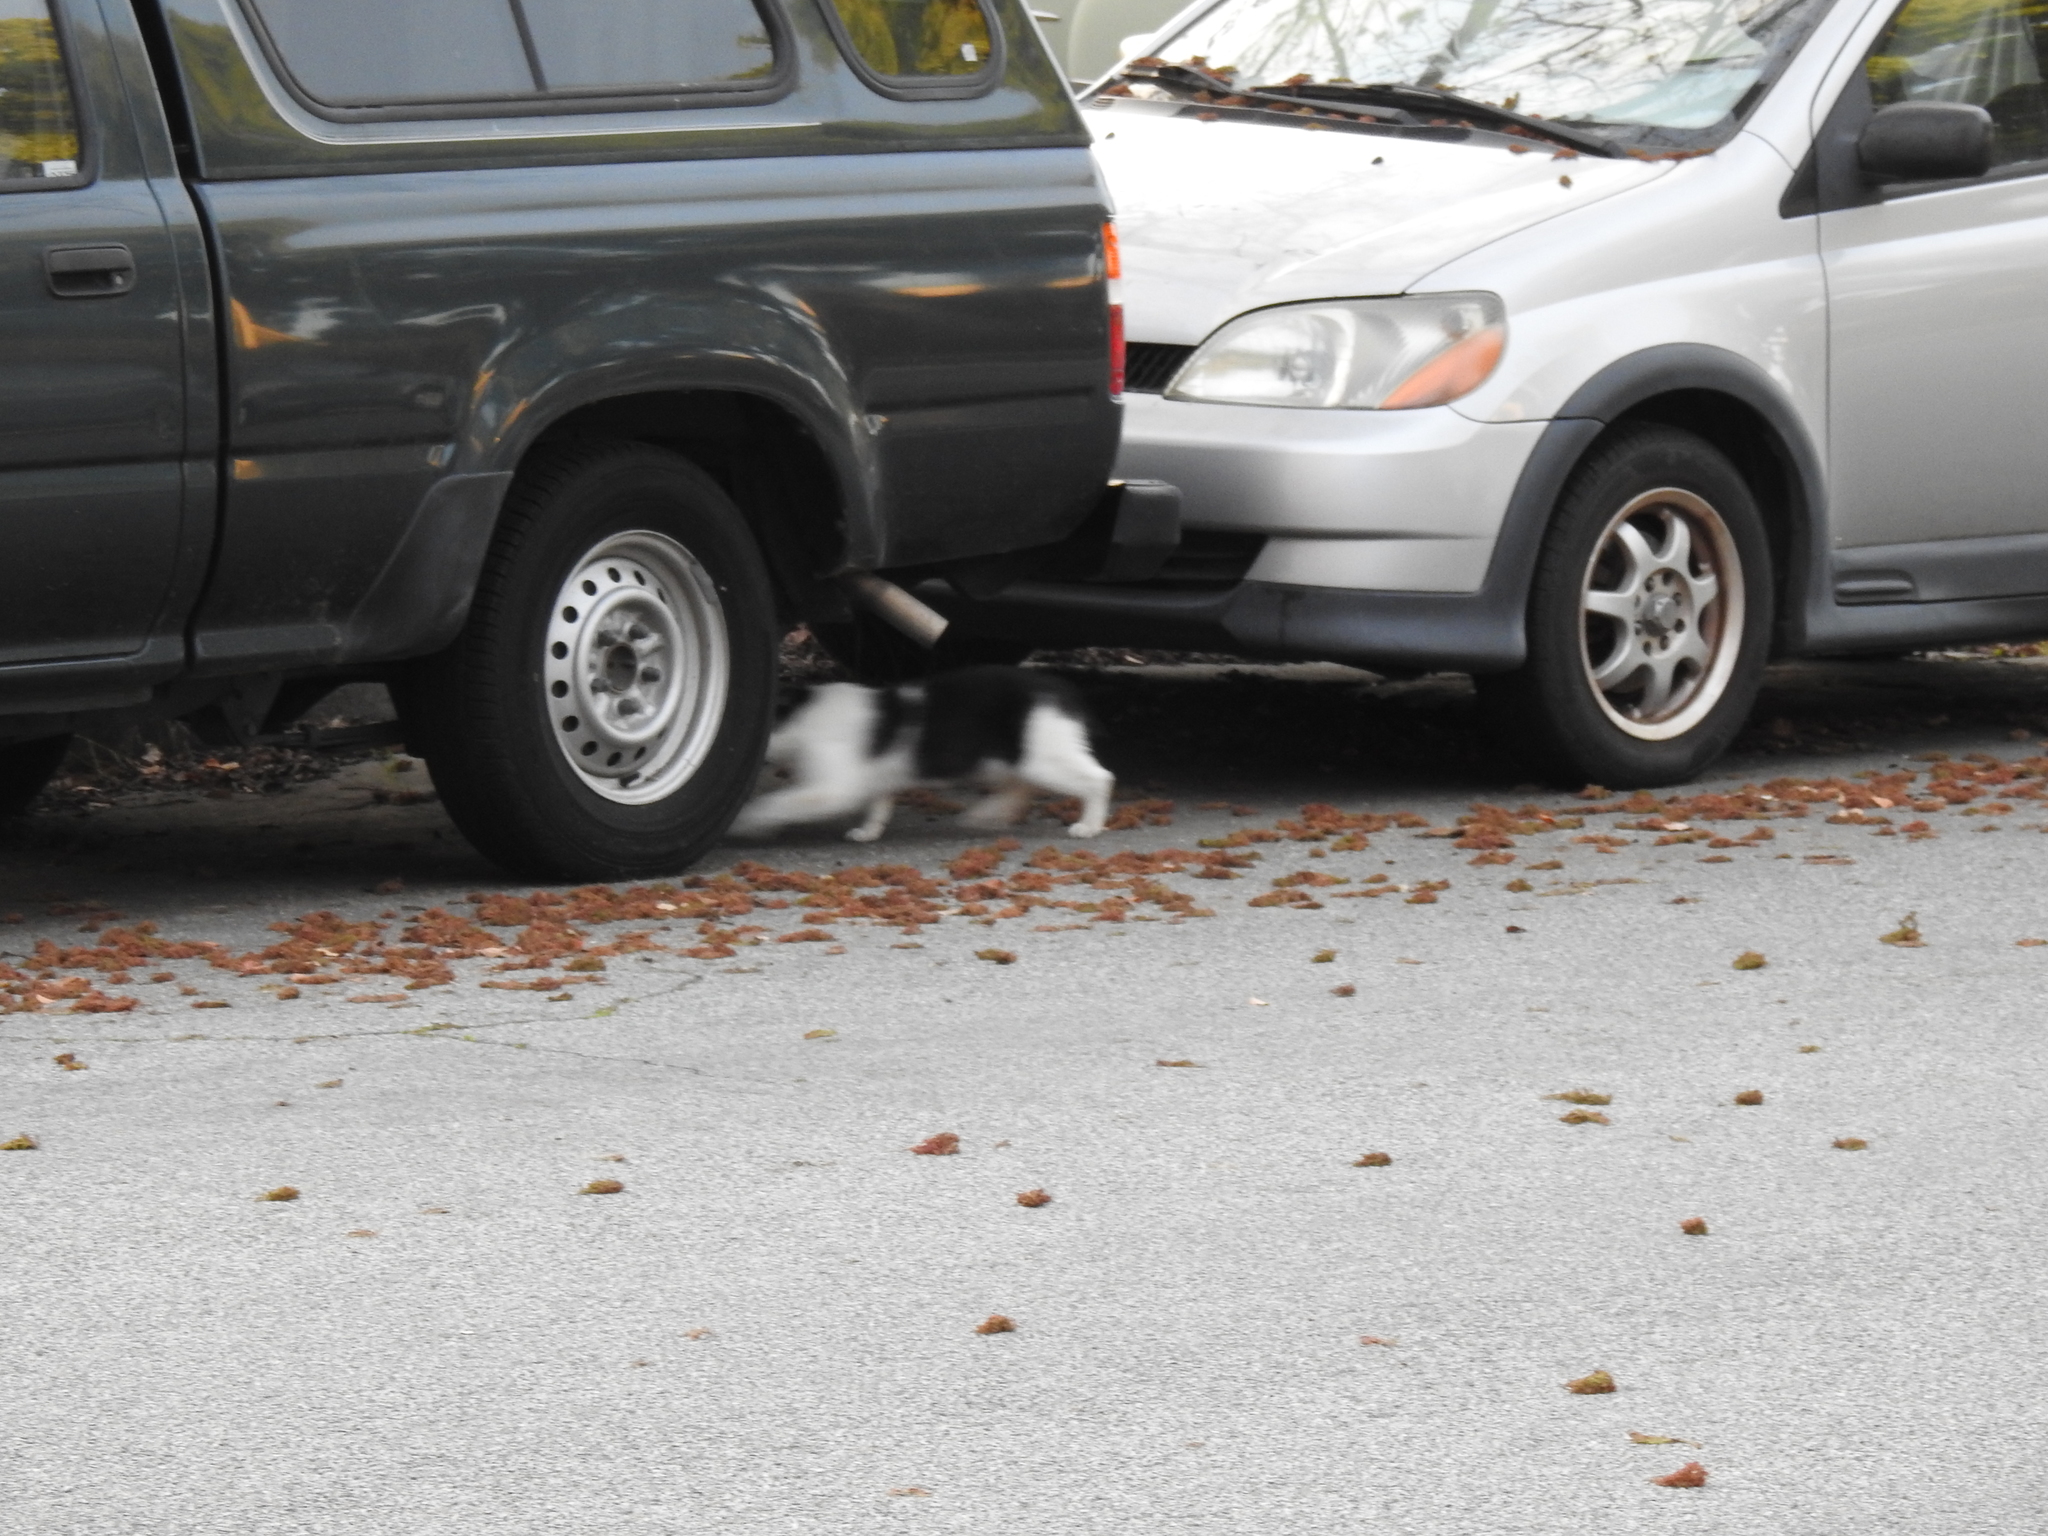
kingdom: Animalia
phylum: Chordata
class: Mammalia
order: Carnivora
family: Felidae
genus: Felis
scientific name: Felis catus
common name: Domestic cat
